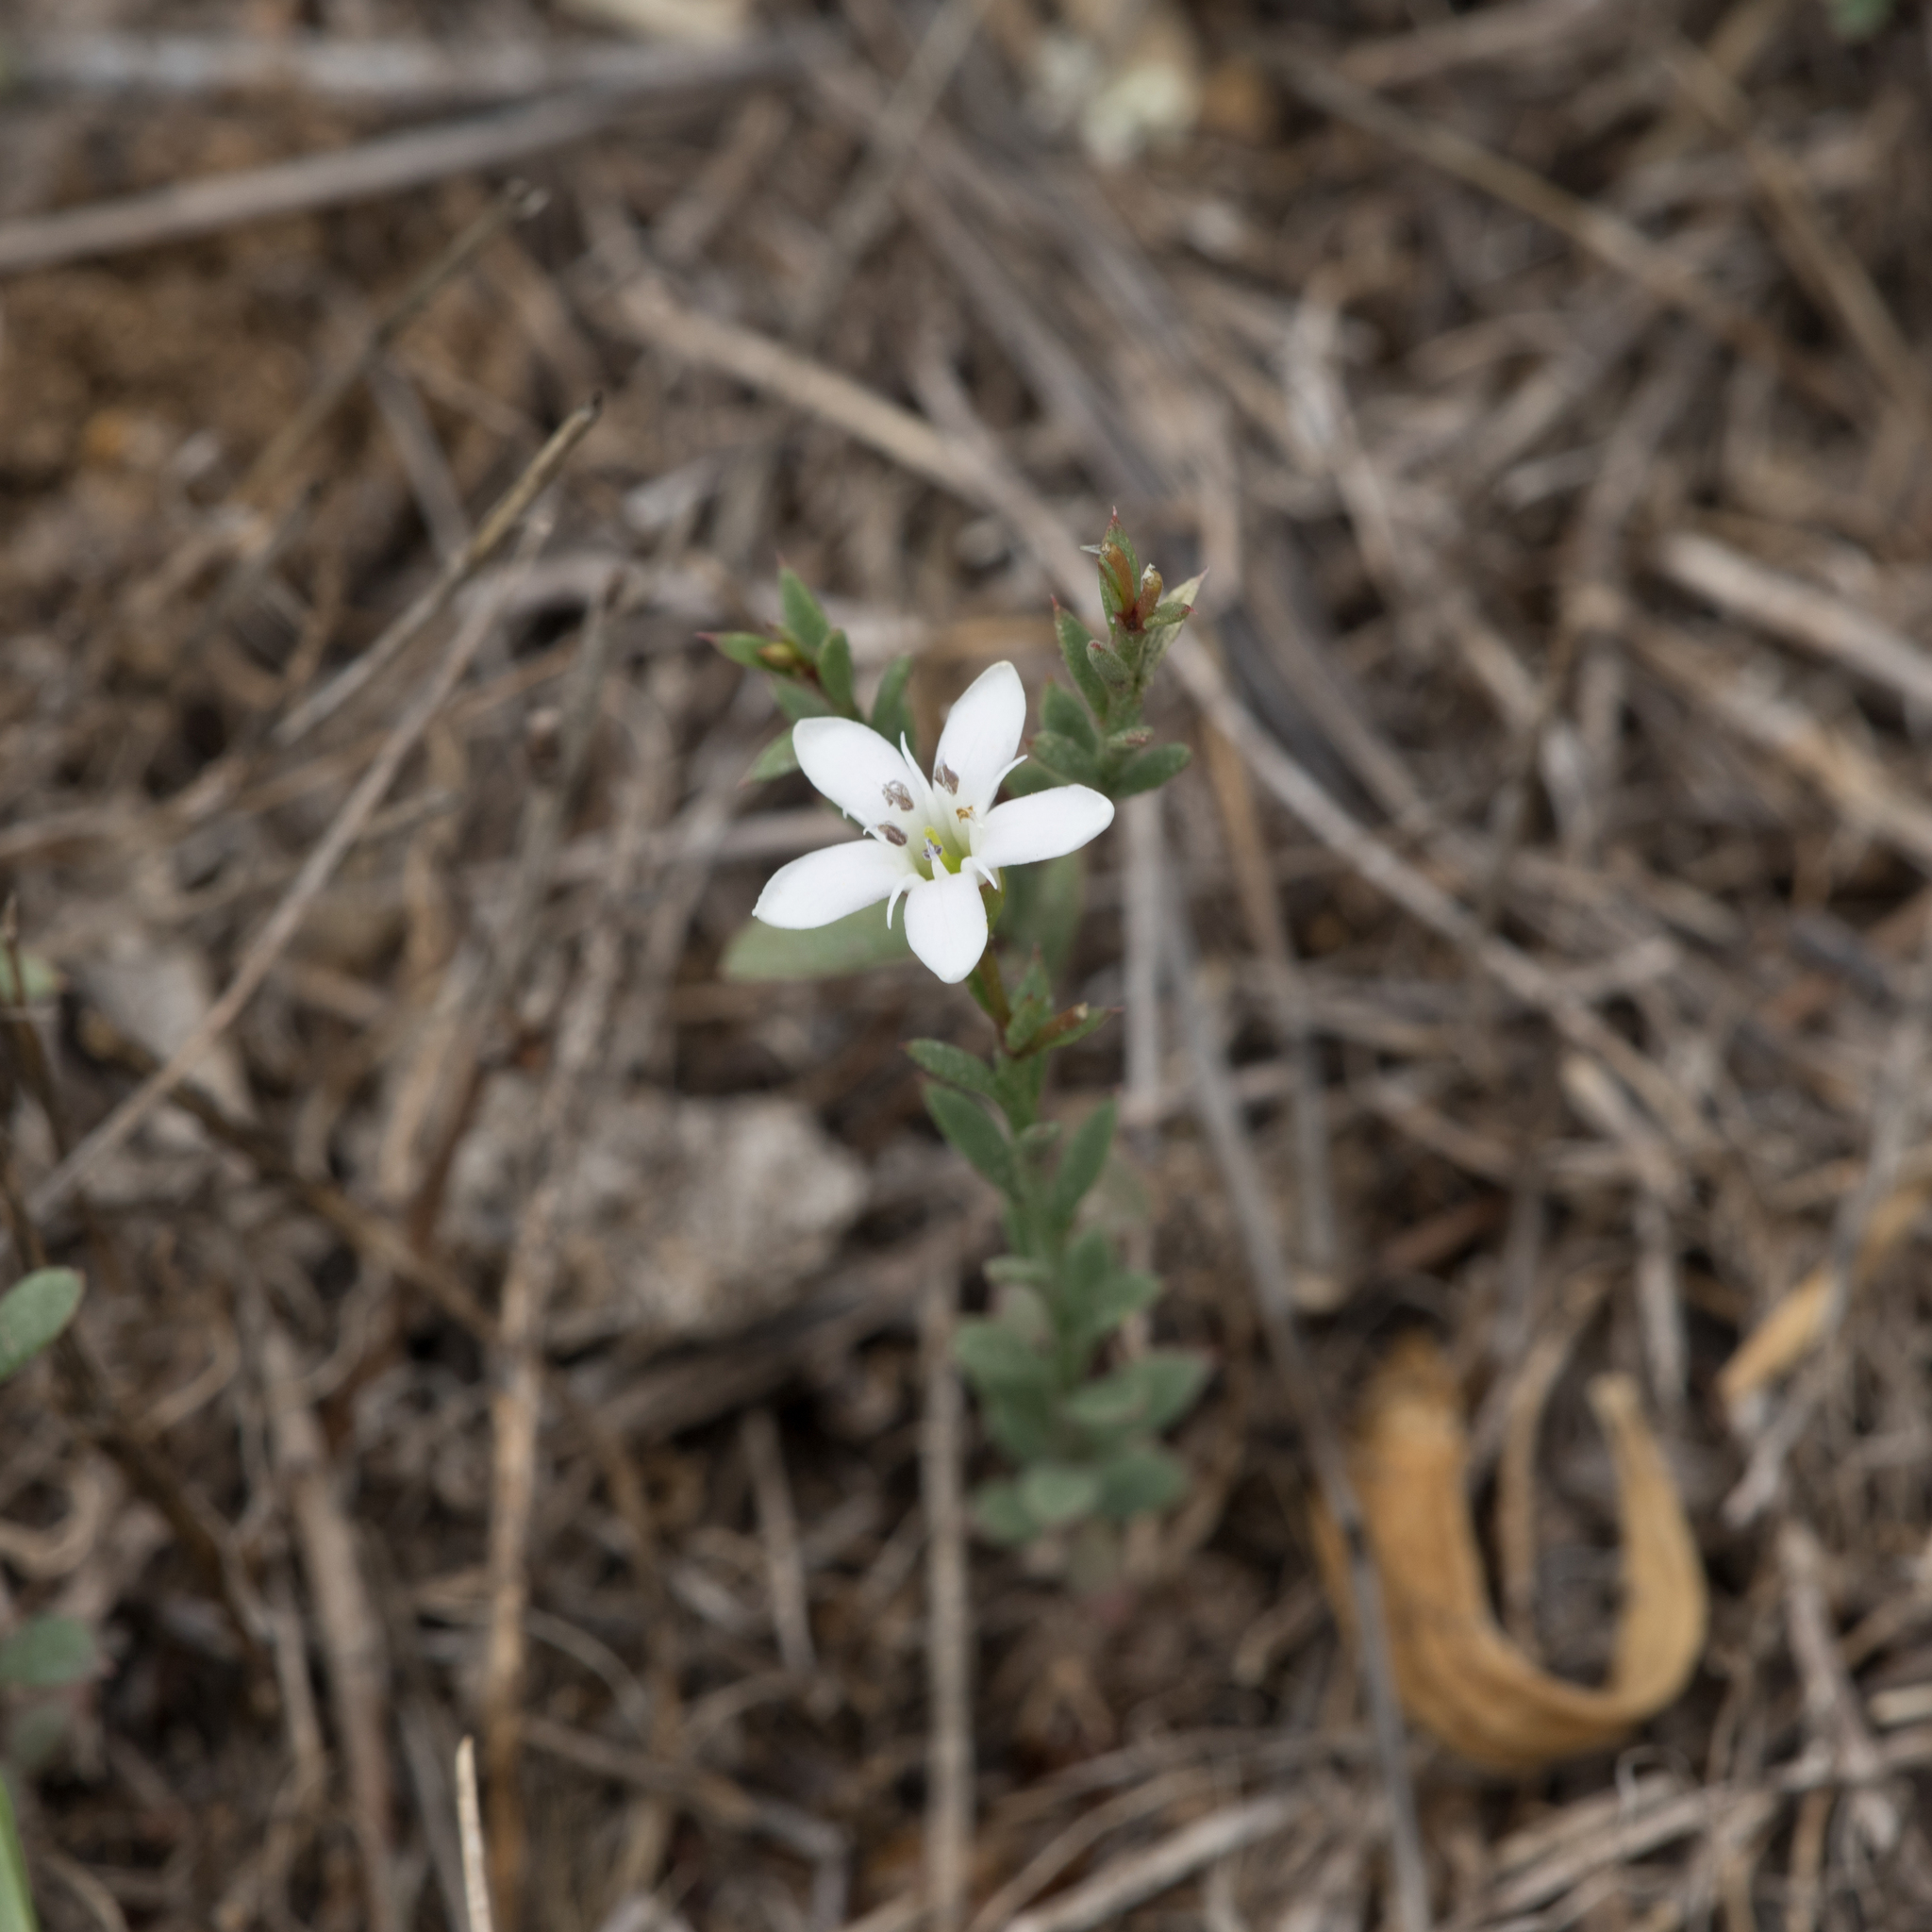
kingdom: Plantae
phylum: Tracheophyta
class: Magnoliopsida
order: Ericales
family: Primulaceae
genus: Samolus
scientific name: Samolus repens
